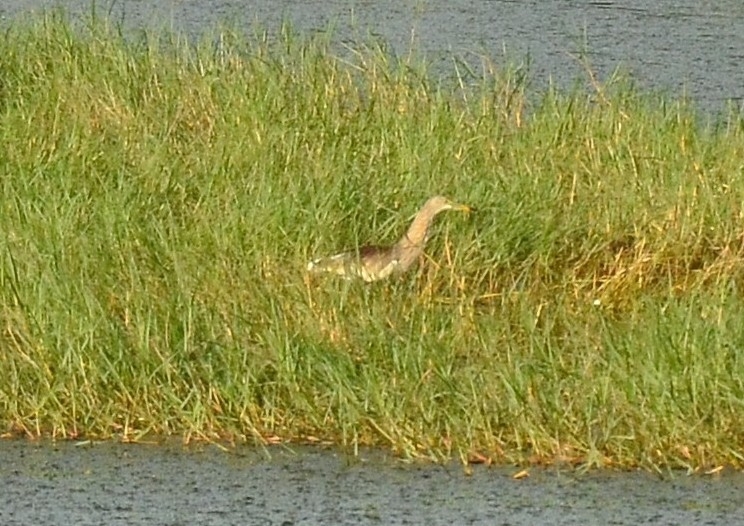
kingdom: Animalia
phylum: Chordata
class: Aves
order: Pelecaniformes
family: Ardeidae
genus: Ardeola
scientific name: Ardeola grayii
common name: Indian pond heron
